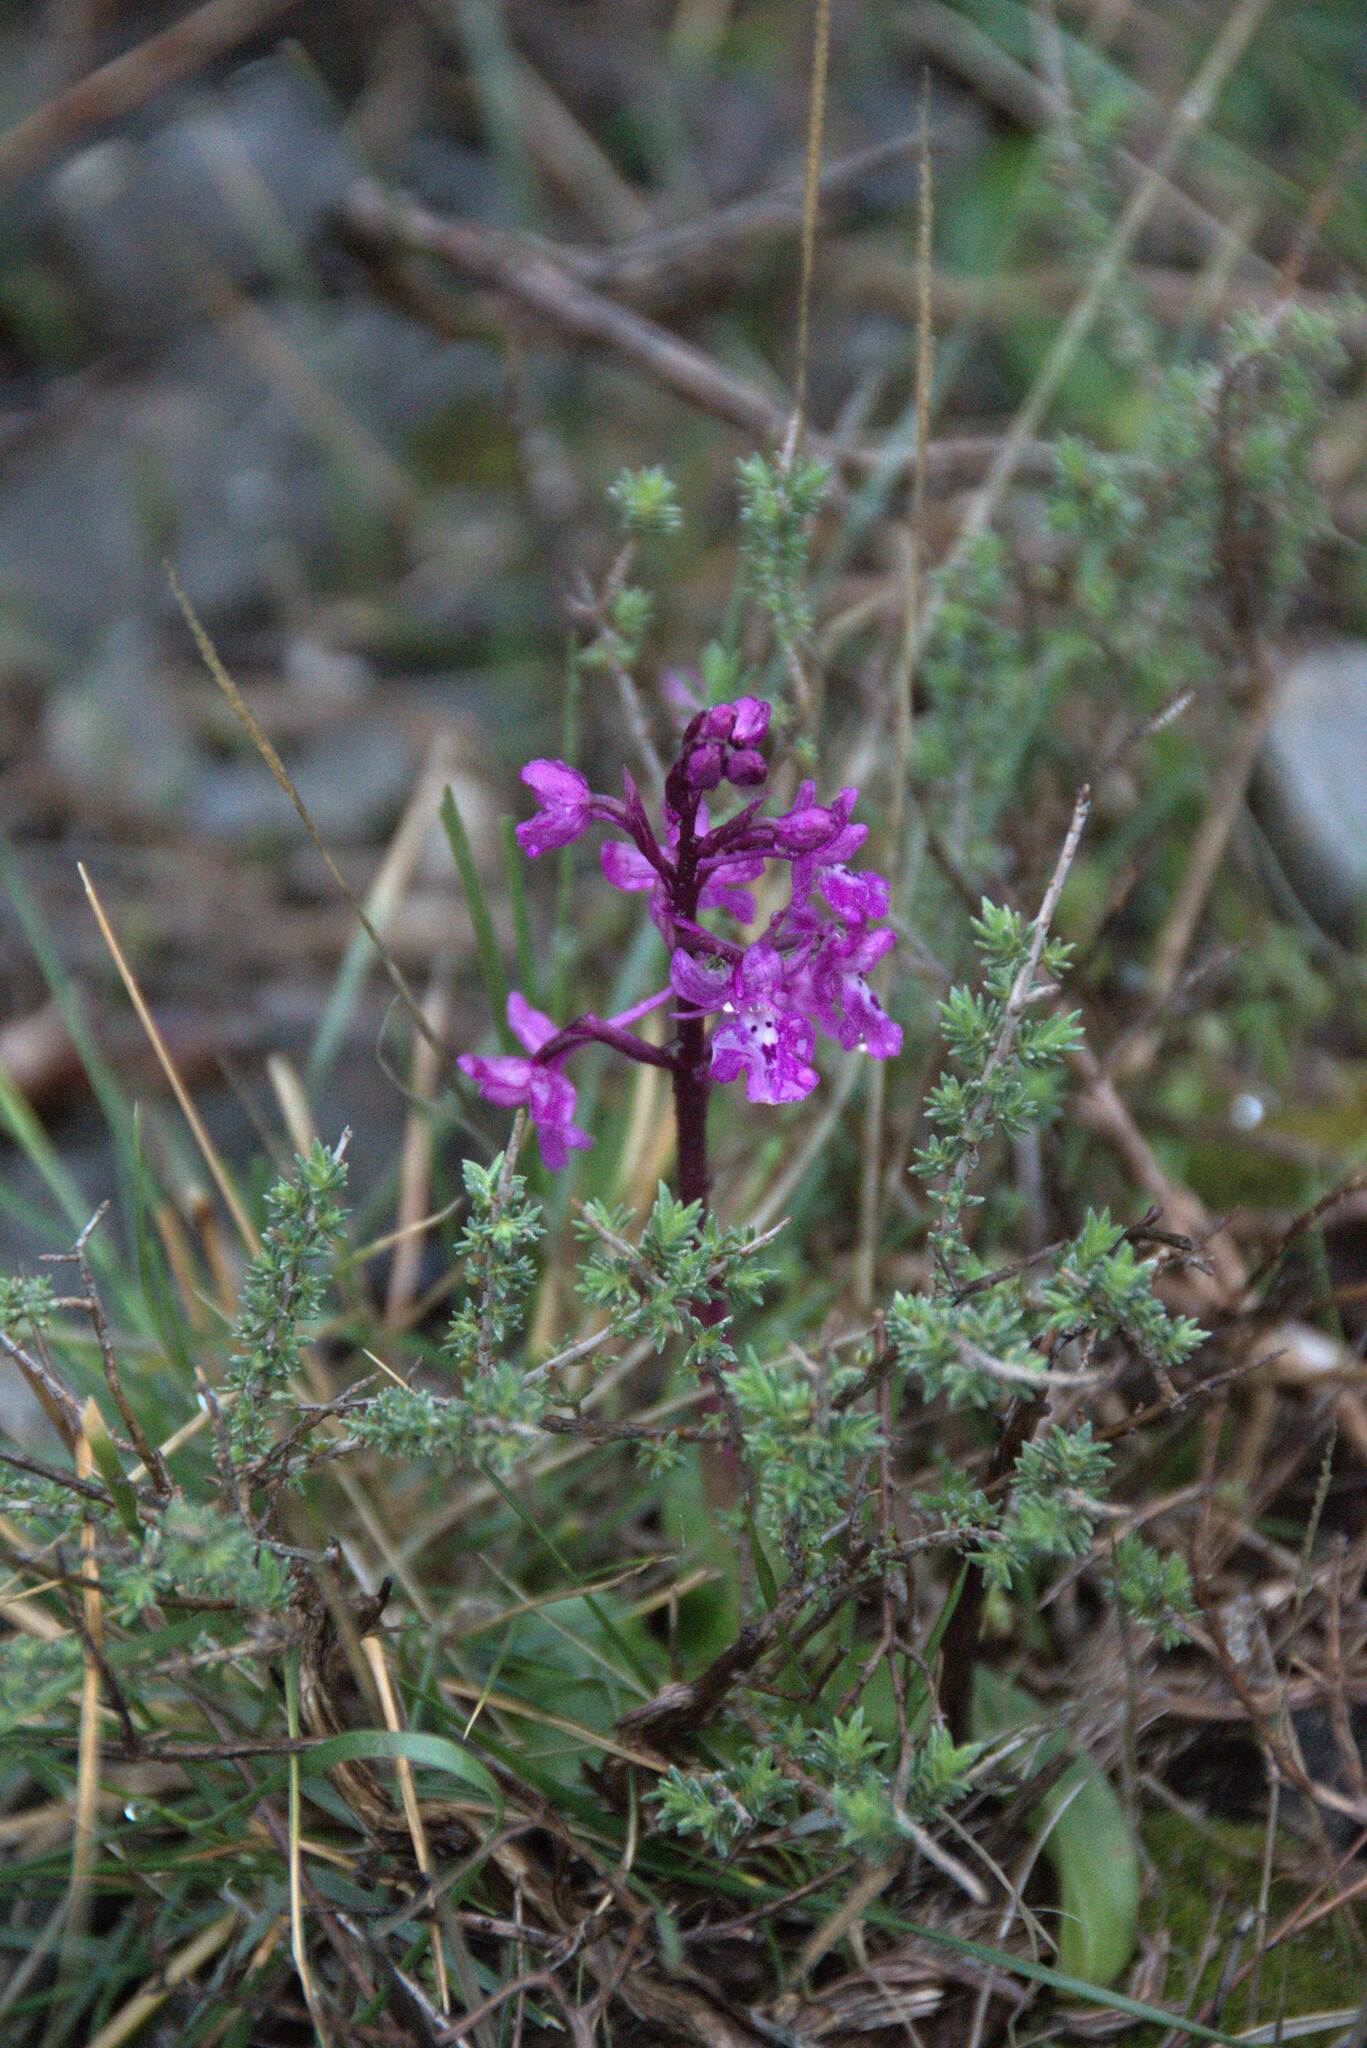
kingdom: Plantae
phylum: Tracheophyta
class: Liliopsida
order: Asparagales
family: Orchidaceae
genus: Orchis
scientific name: Orchis quadripunctata
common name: Four-spotted orchid
